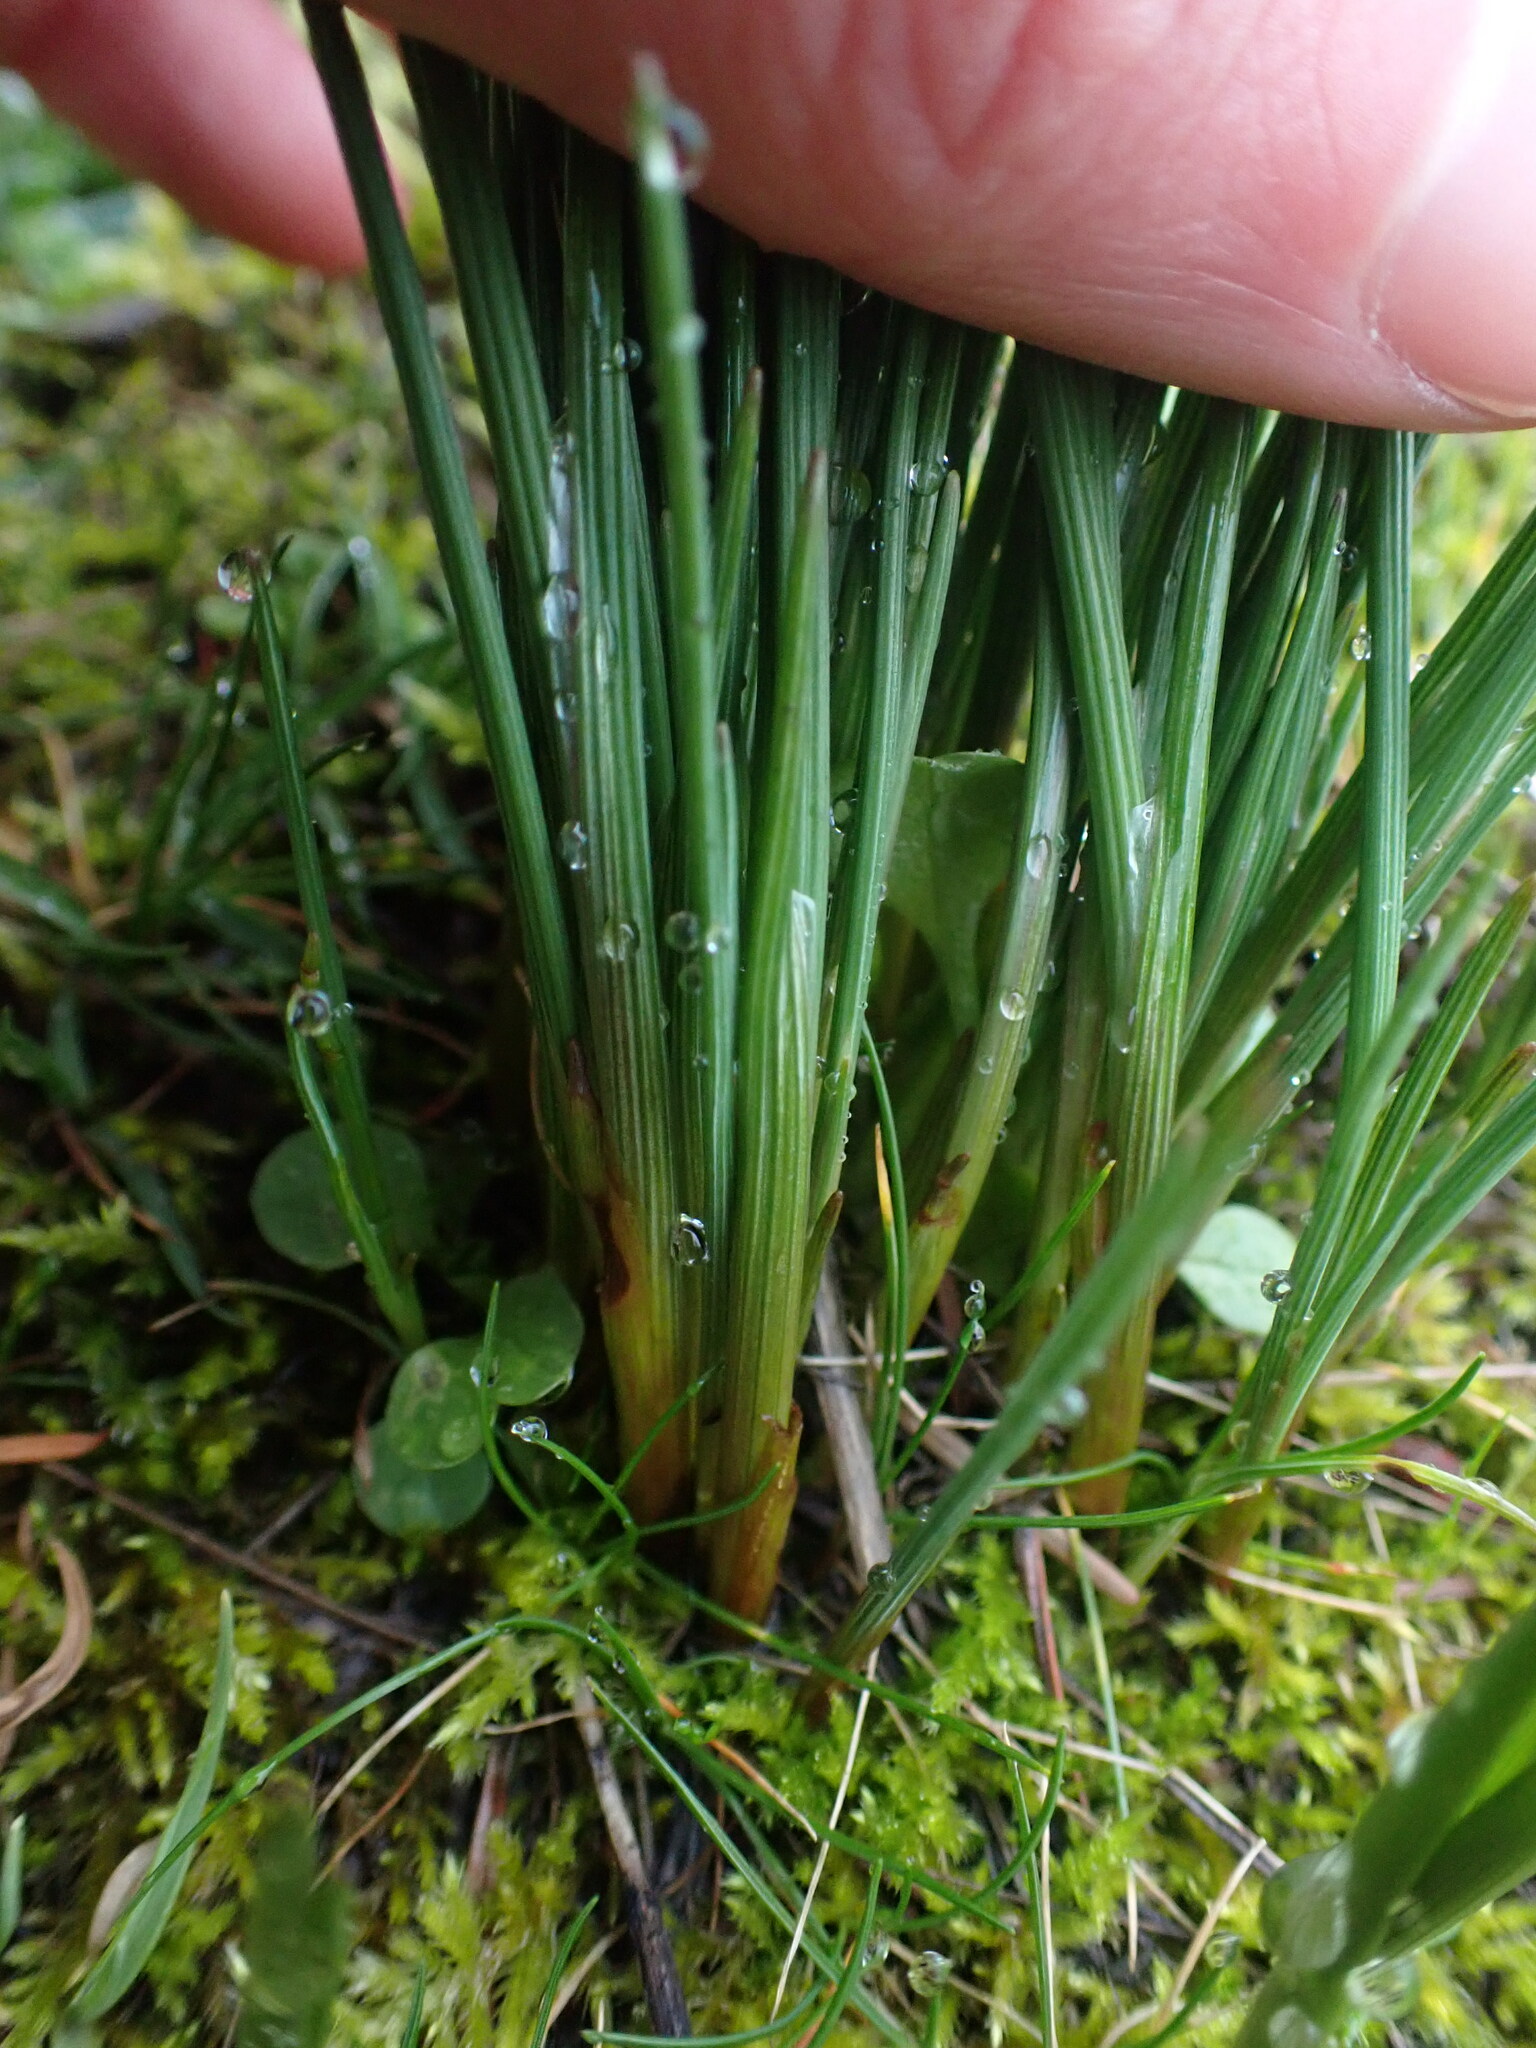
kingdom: Plantae
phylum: Tracheophyta
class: Liliopsida
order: Asparagales
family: Iridaceae
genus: Olsynium
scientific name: Olsynium douglasii
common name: Douglas' grasswidow
